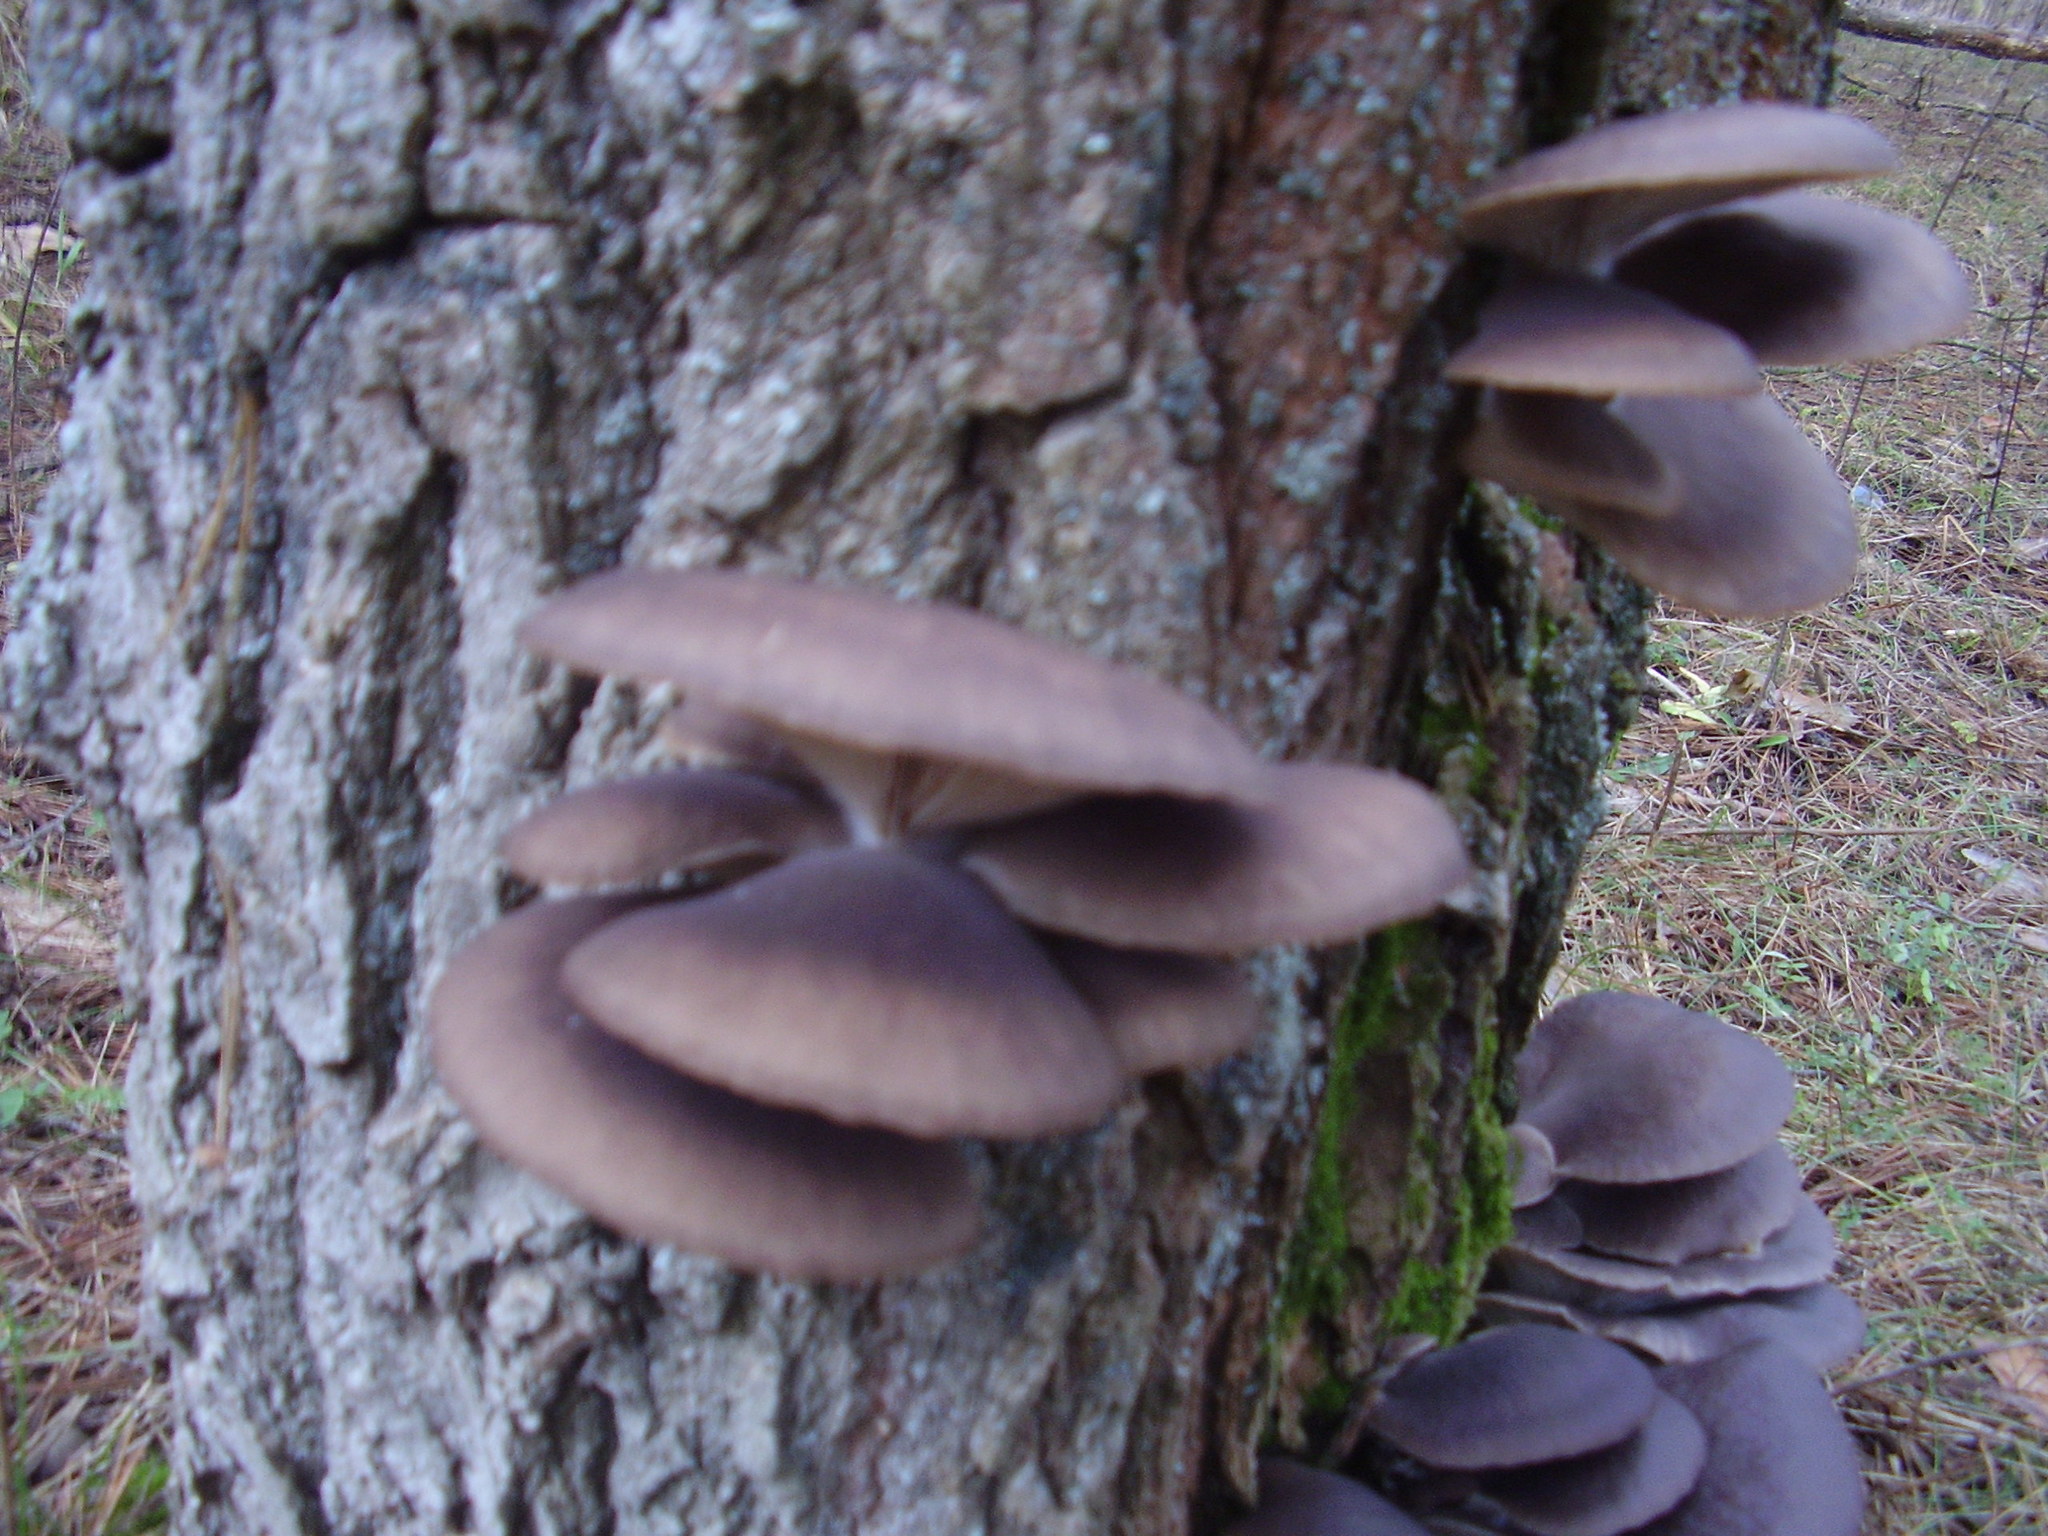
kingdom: Fungi
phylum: Basidiomycota
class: Agaricomycetes
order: Agaricales
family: Pleurotaceae
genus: Pleurotus
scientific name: Pleurotus ostreatus
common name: Oyster mushroom
